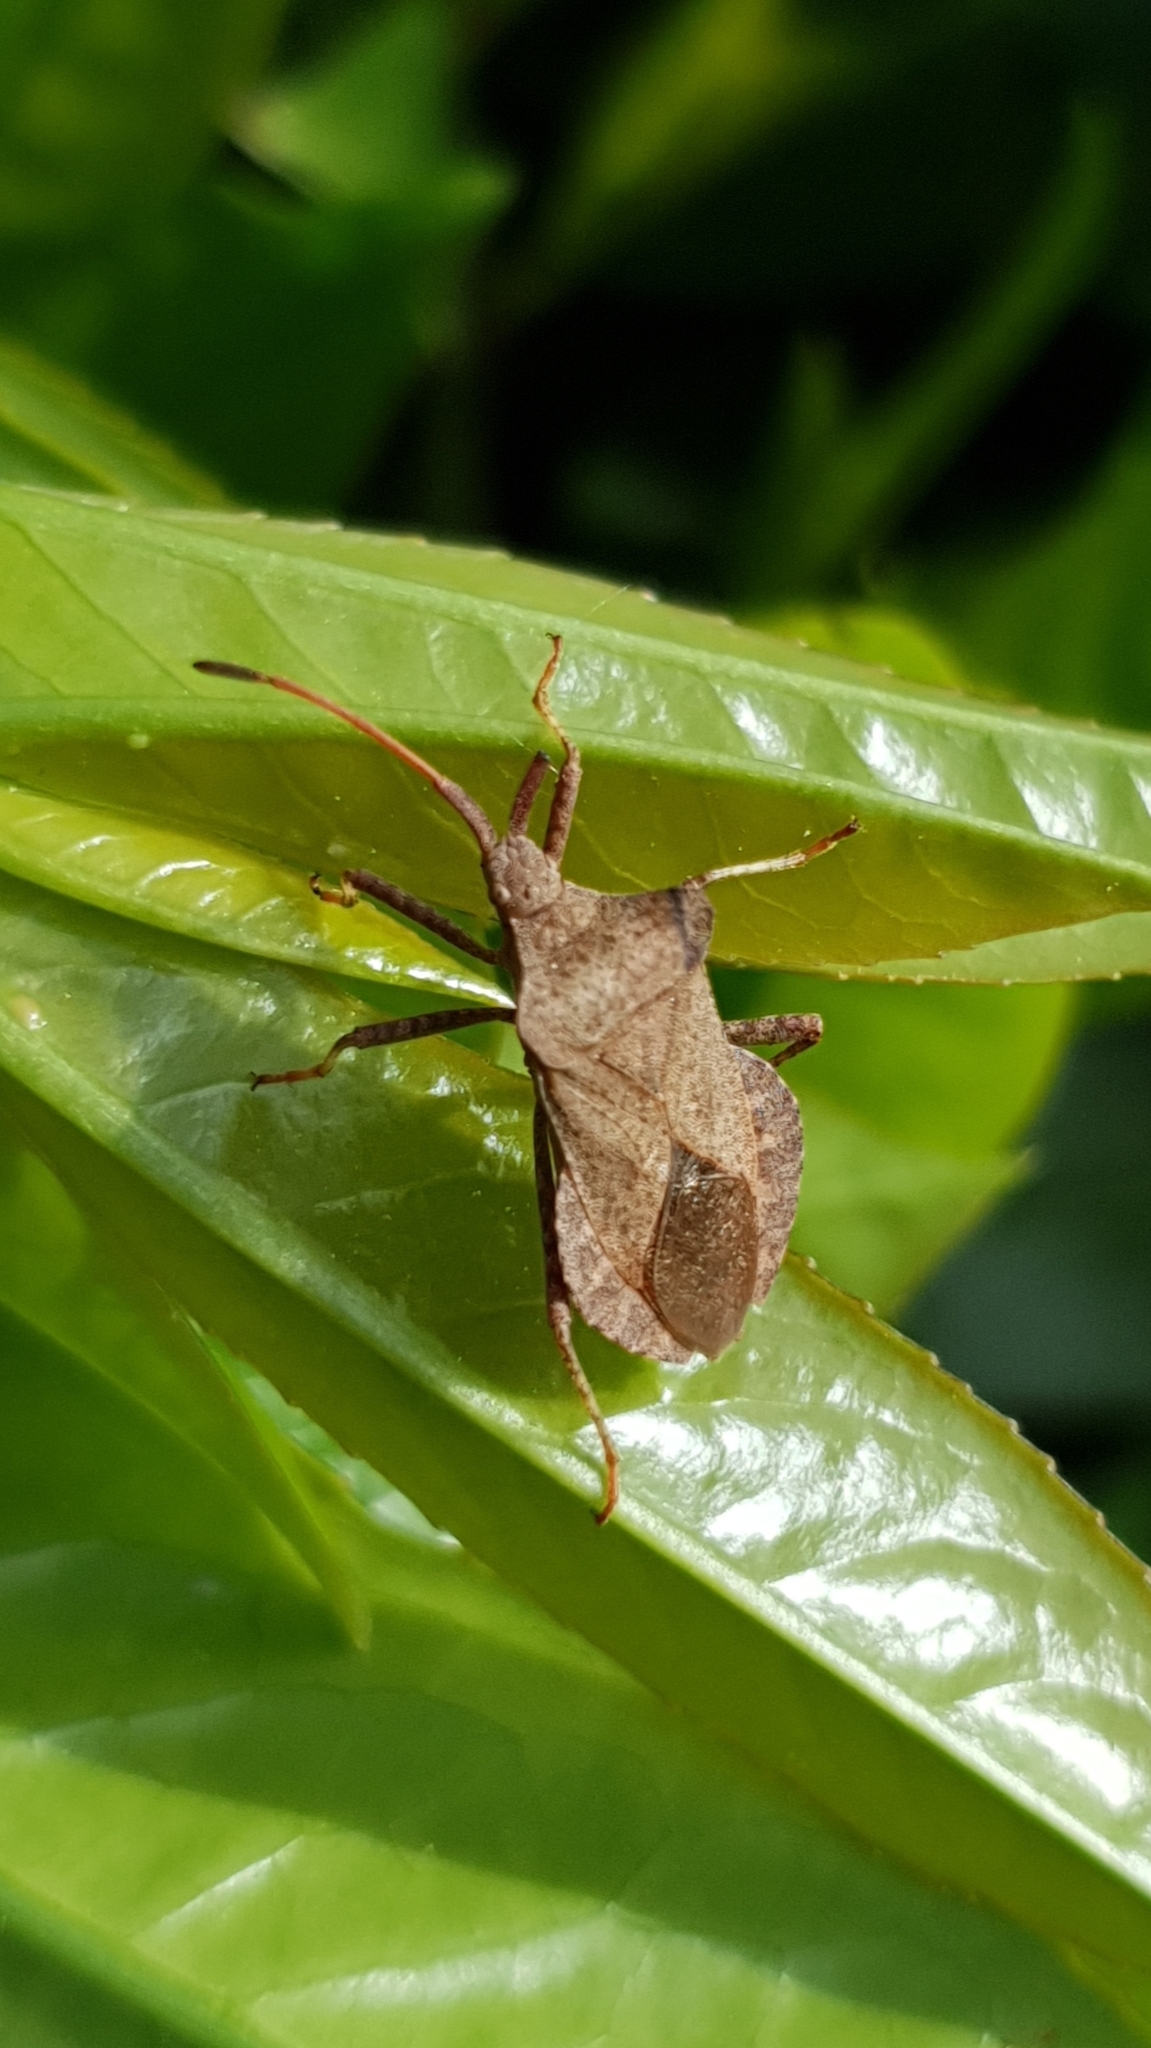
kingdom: Animalia
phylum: Arthropoda
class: Insecta
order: Hemiptera
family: Coreidae
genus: Coreus
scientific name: Coreus marginatus
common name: Dock bug
